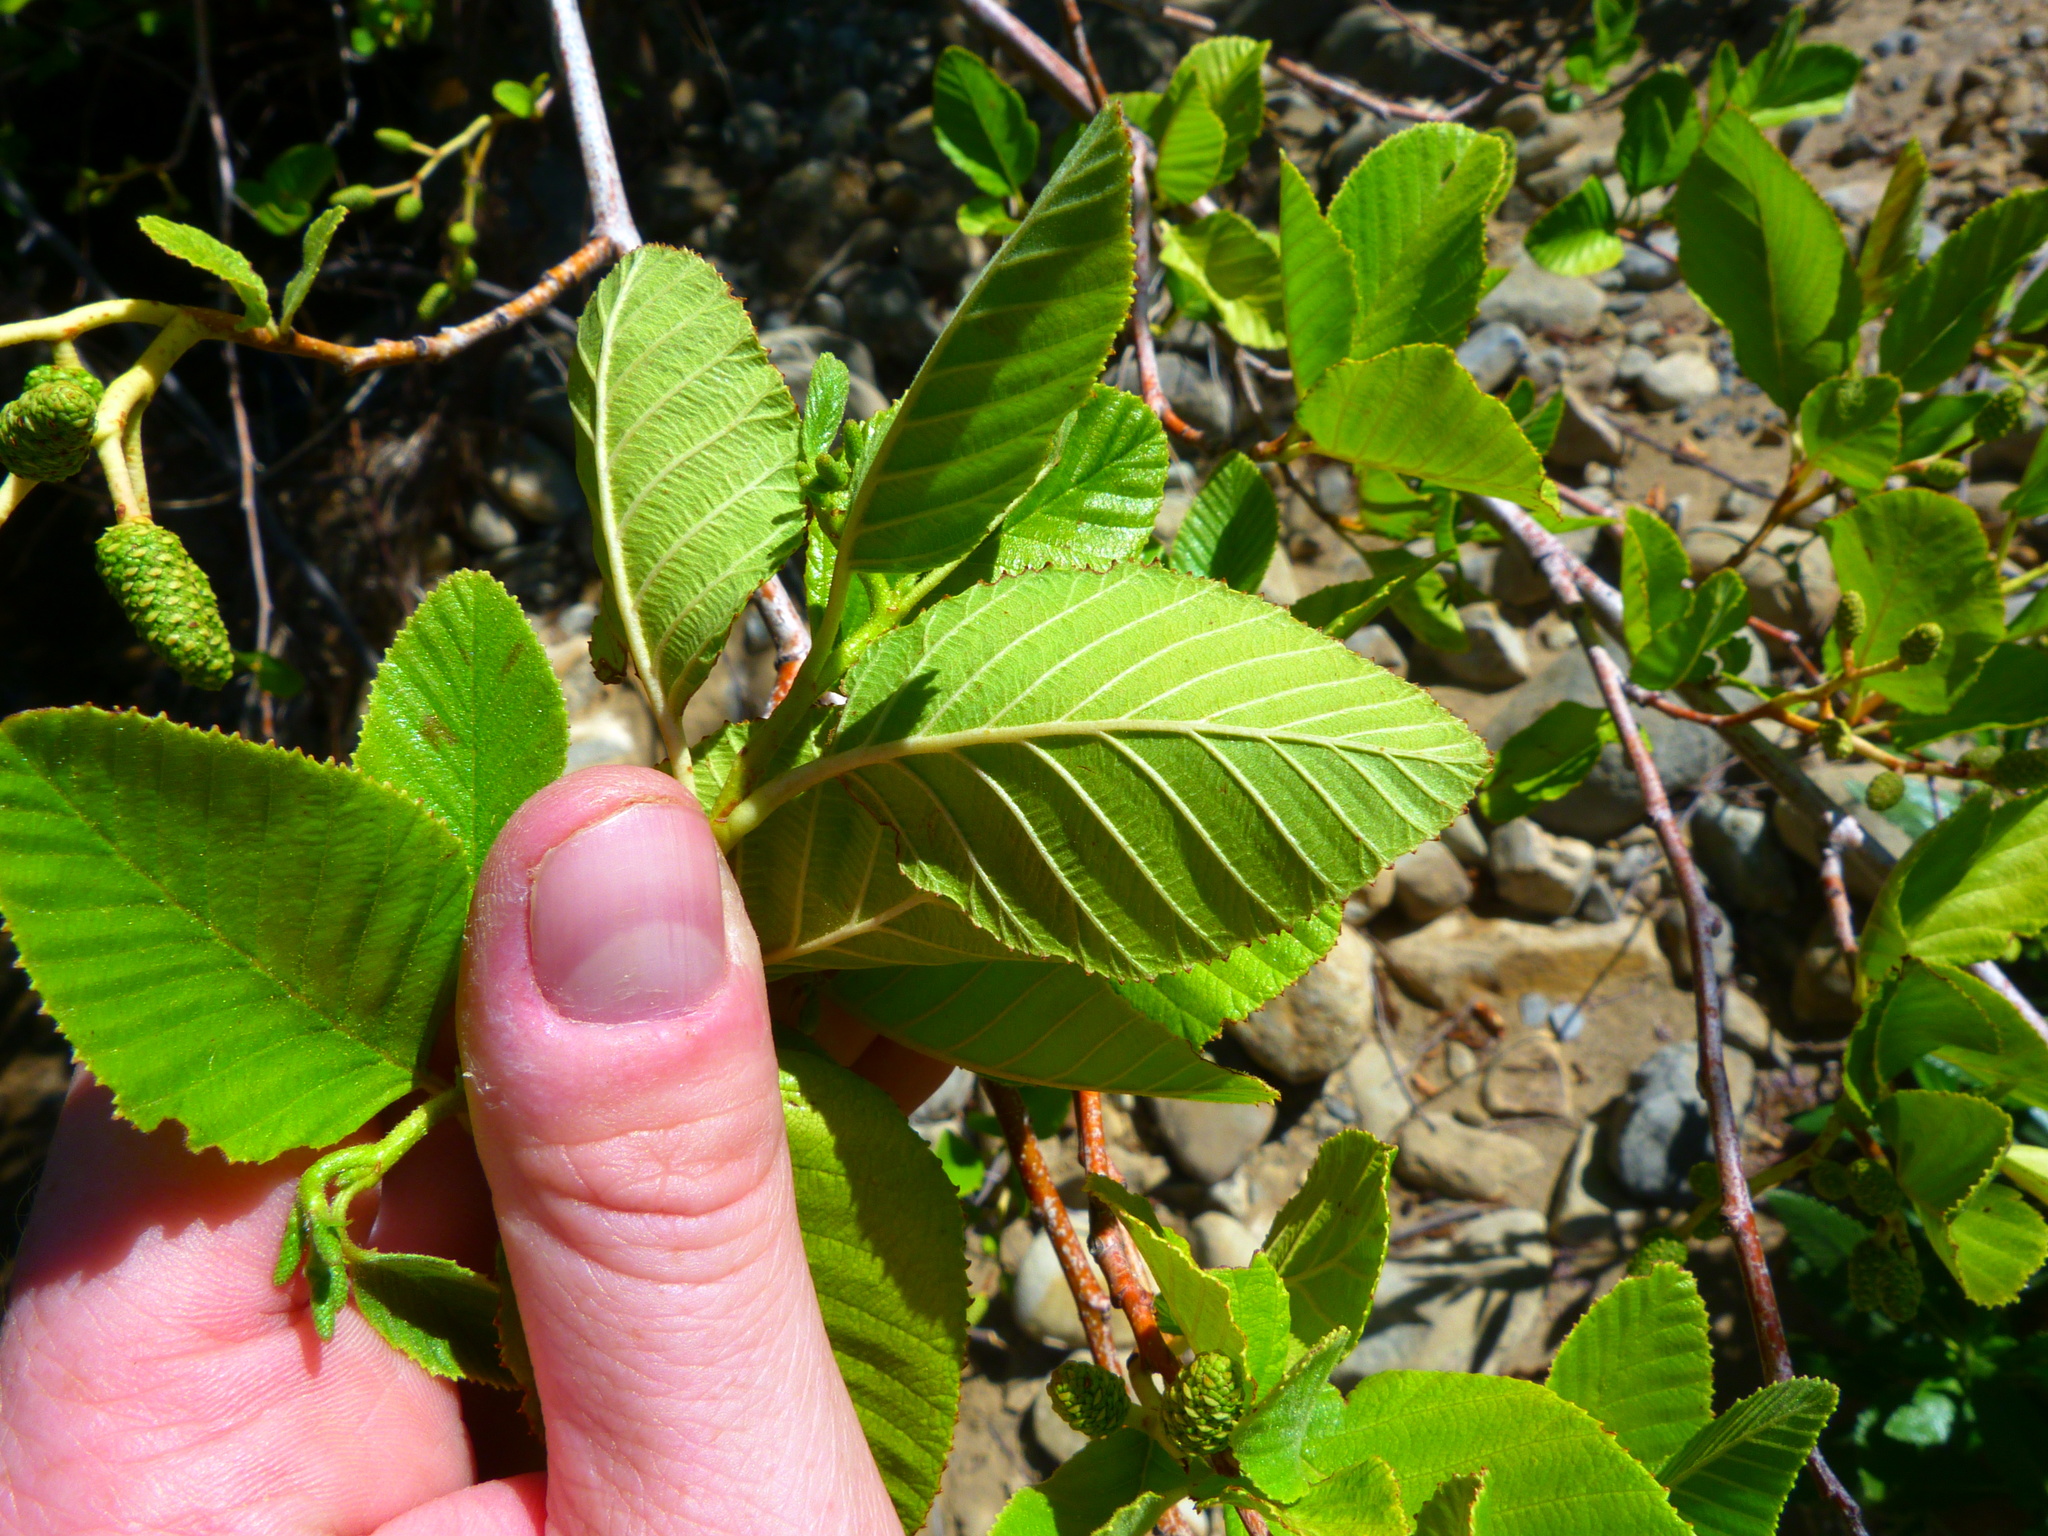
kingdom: Plantae
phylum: Tracheophyta
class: Magnoliopsida
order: Fagales
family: Betulaceae
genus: Alnus
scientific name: Alnus rhombifolia
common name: California alder
